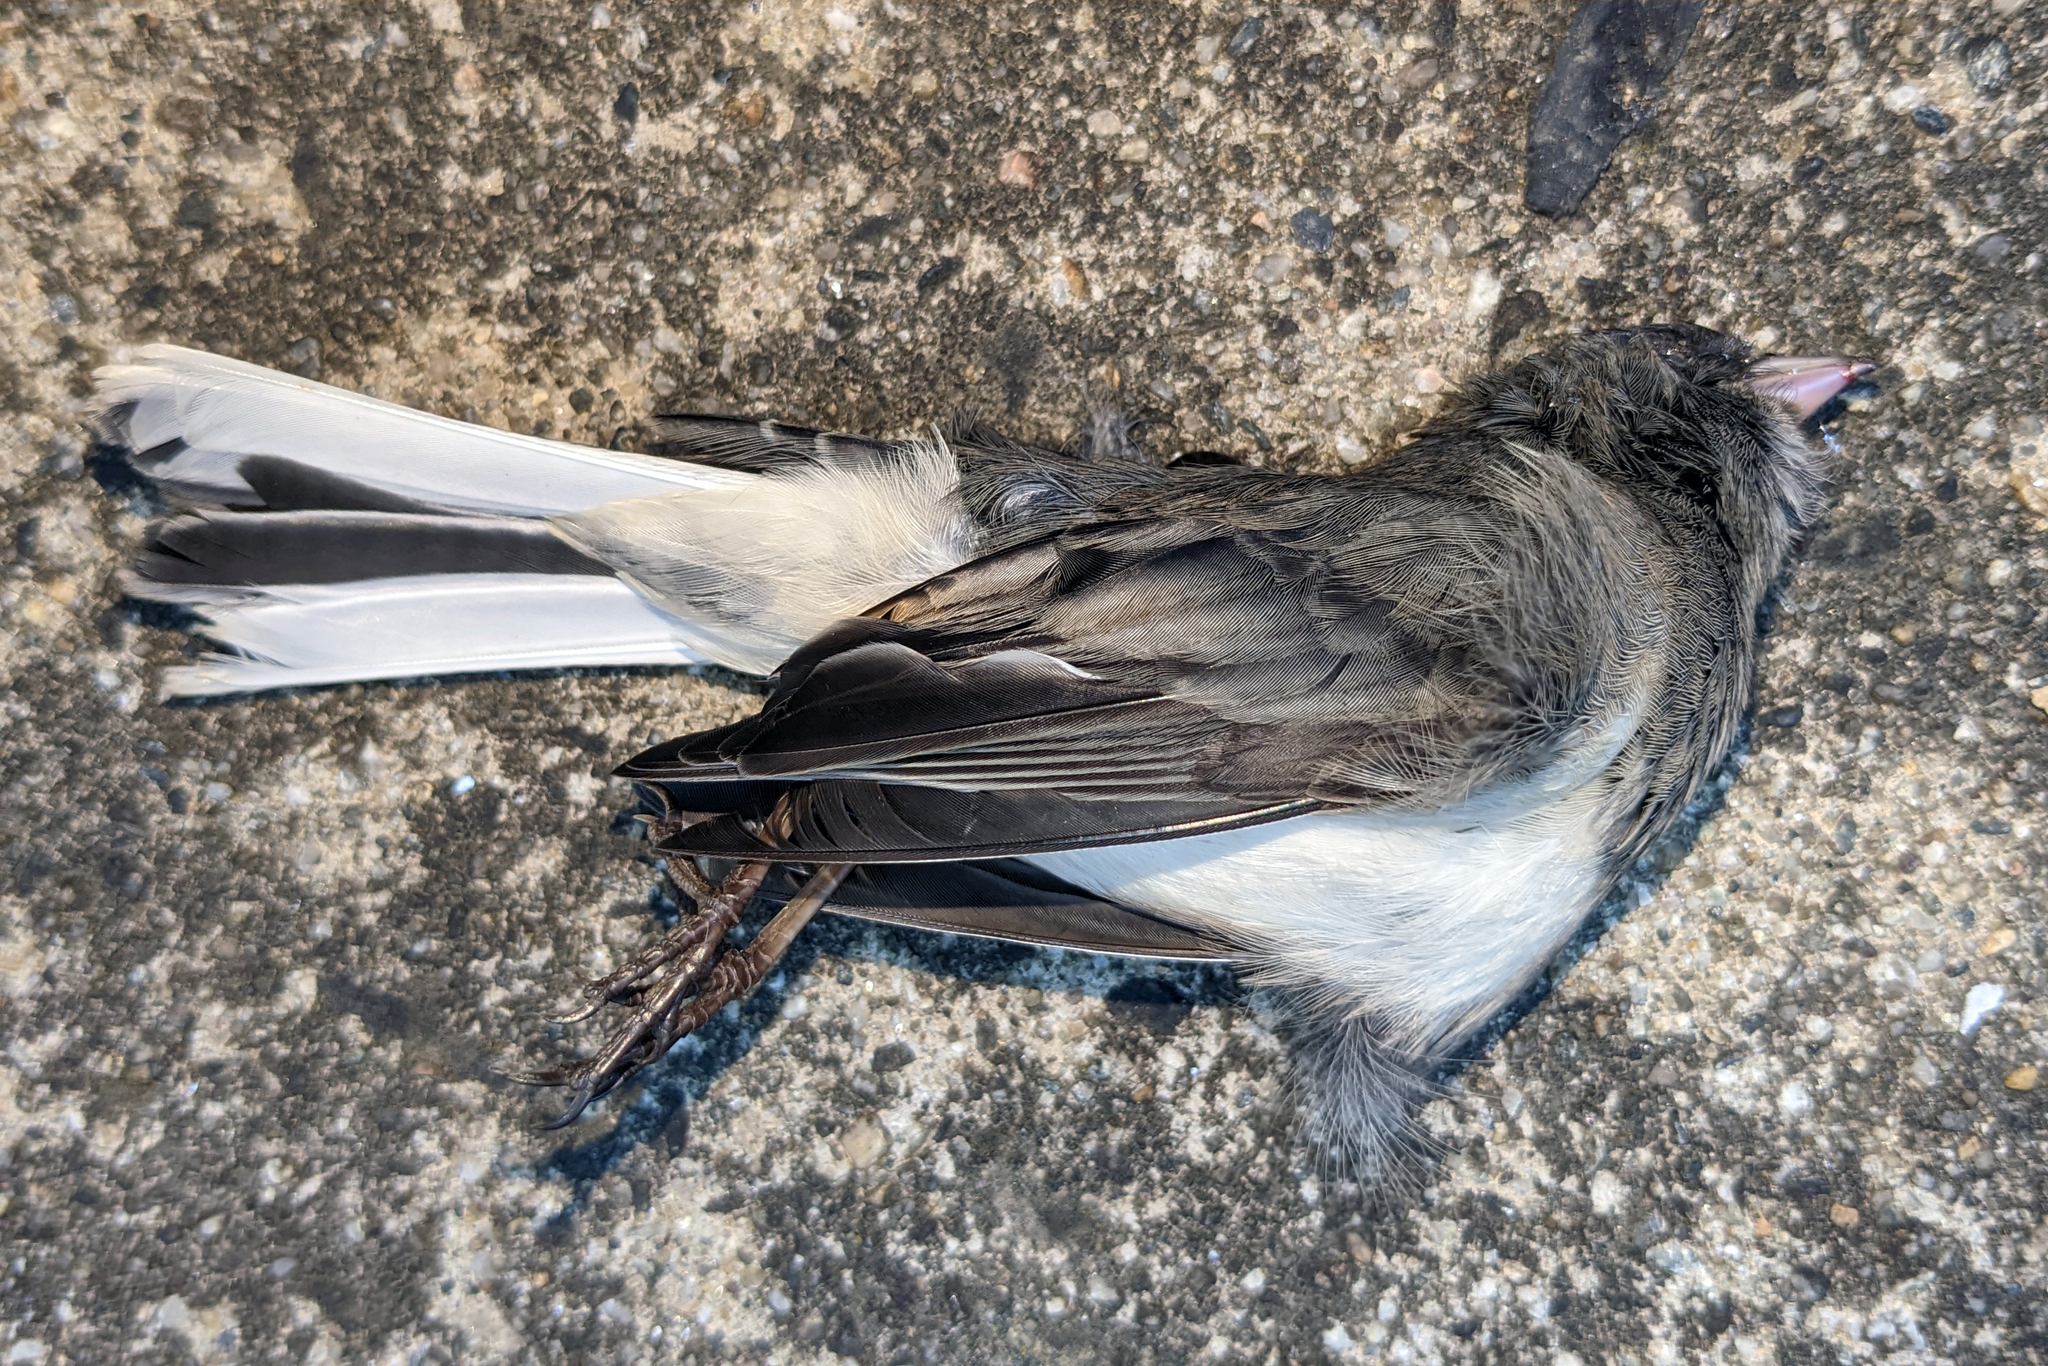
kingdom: Animalia
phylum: Chordata
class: Aves
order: Passeriformes
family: Passerellidae
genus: Junco
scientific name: Junco hyemalis
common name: Dark-eyed junco
